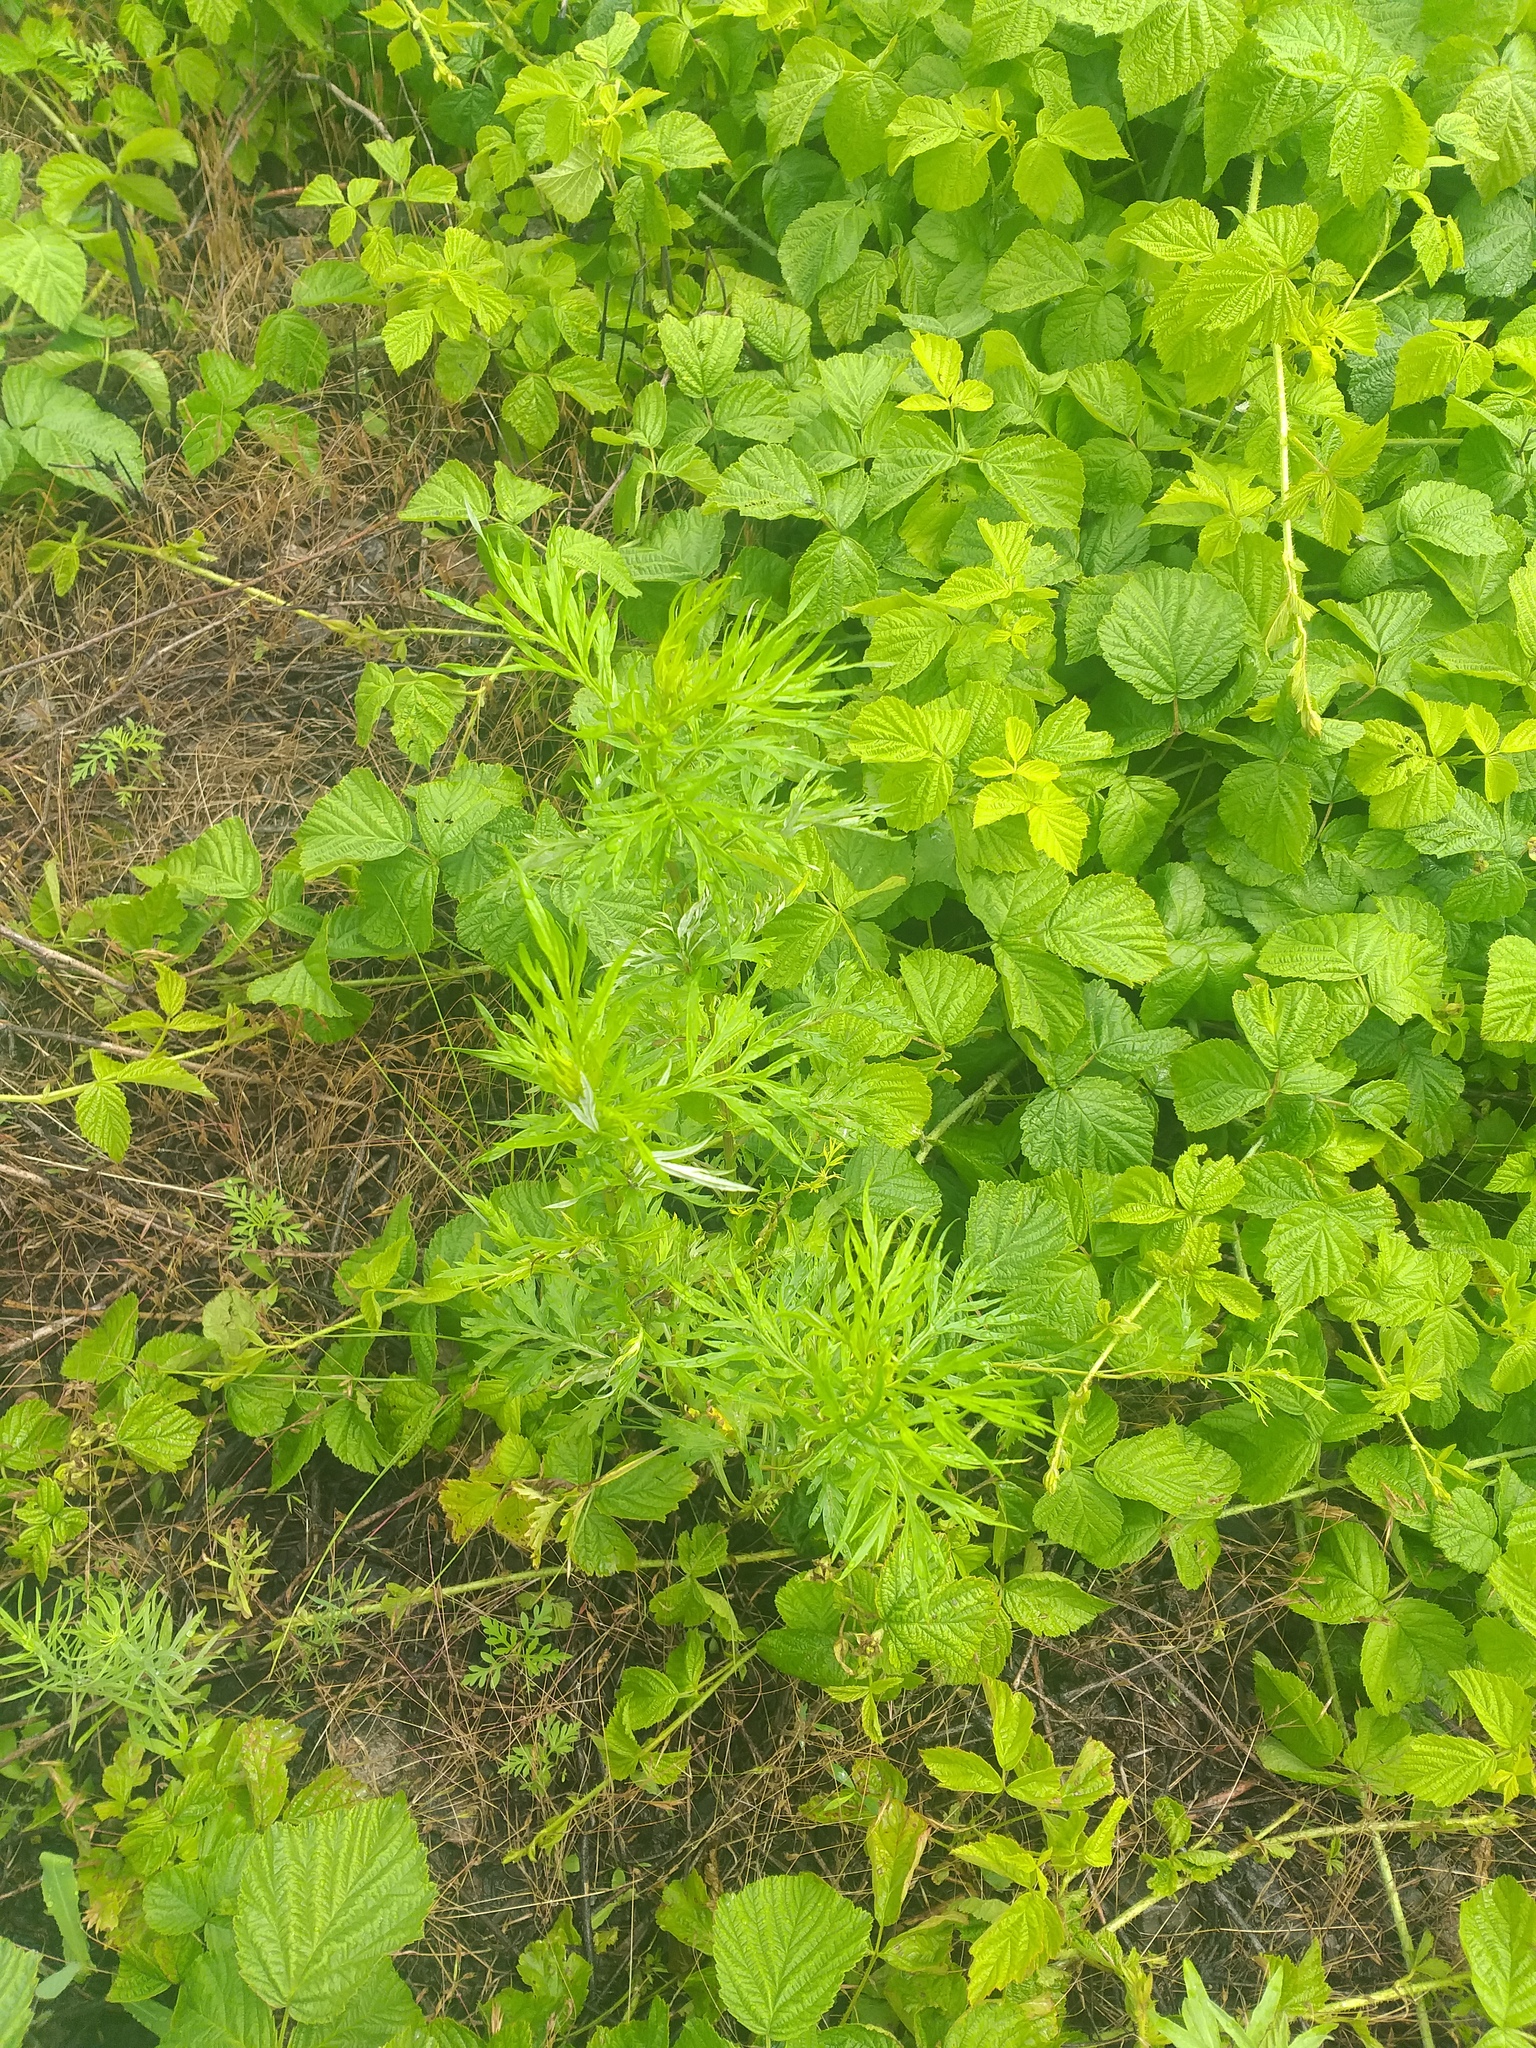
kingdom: Plantae
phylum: Tracheophyta
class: Magnoliopsida
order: Asterales
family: Asteraceae
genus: Artemisia
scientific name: Artemisia vulgaris
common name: Mugwort
